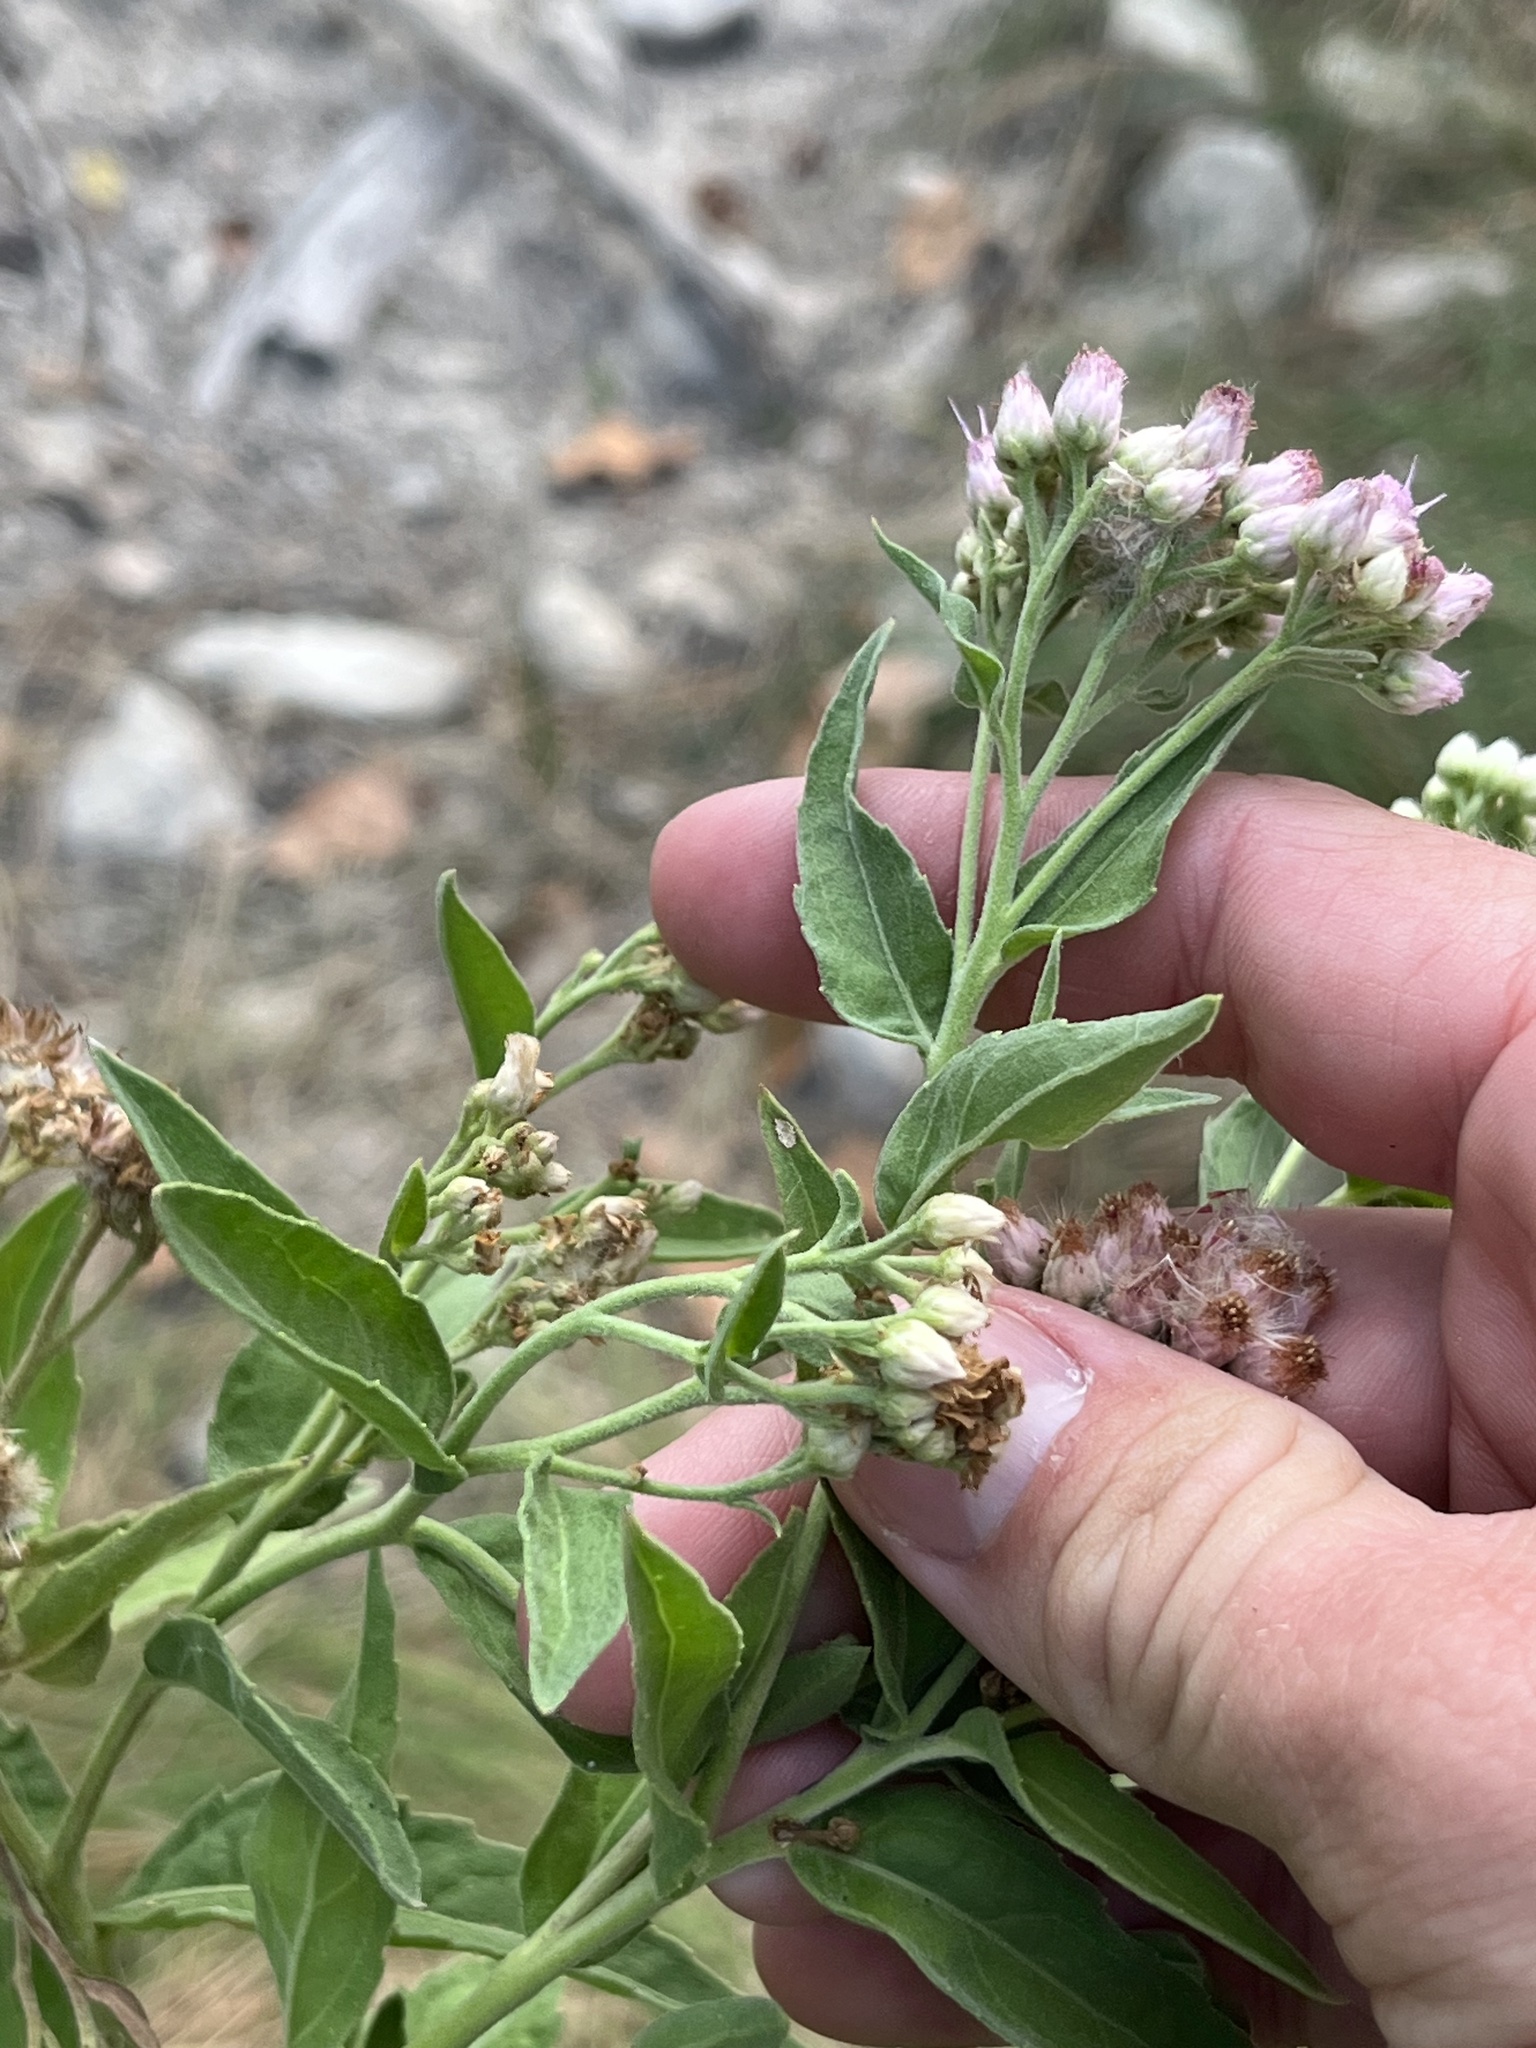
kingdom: Plantae
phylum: Tracheophyta
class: Magnoliopsida
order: Asterales
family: Asteraceae
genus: Pluchea
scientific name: Pluchea odorata
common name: Saltmarsh fleabane
